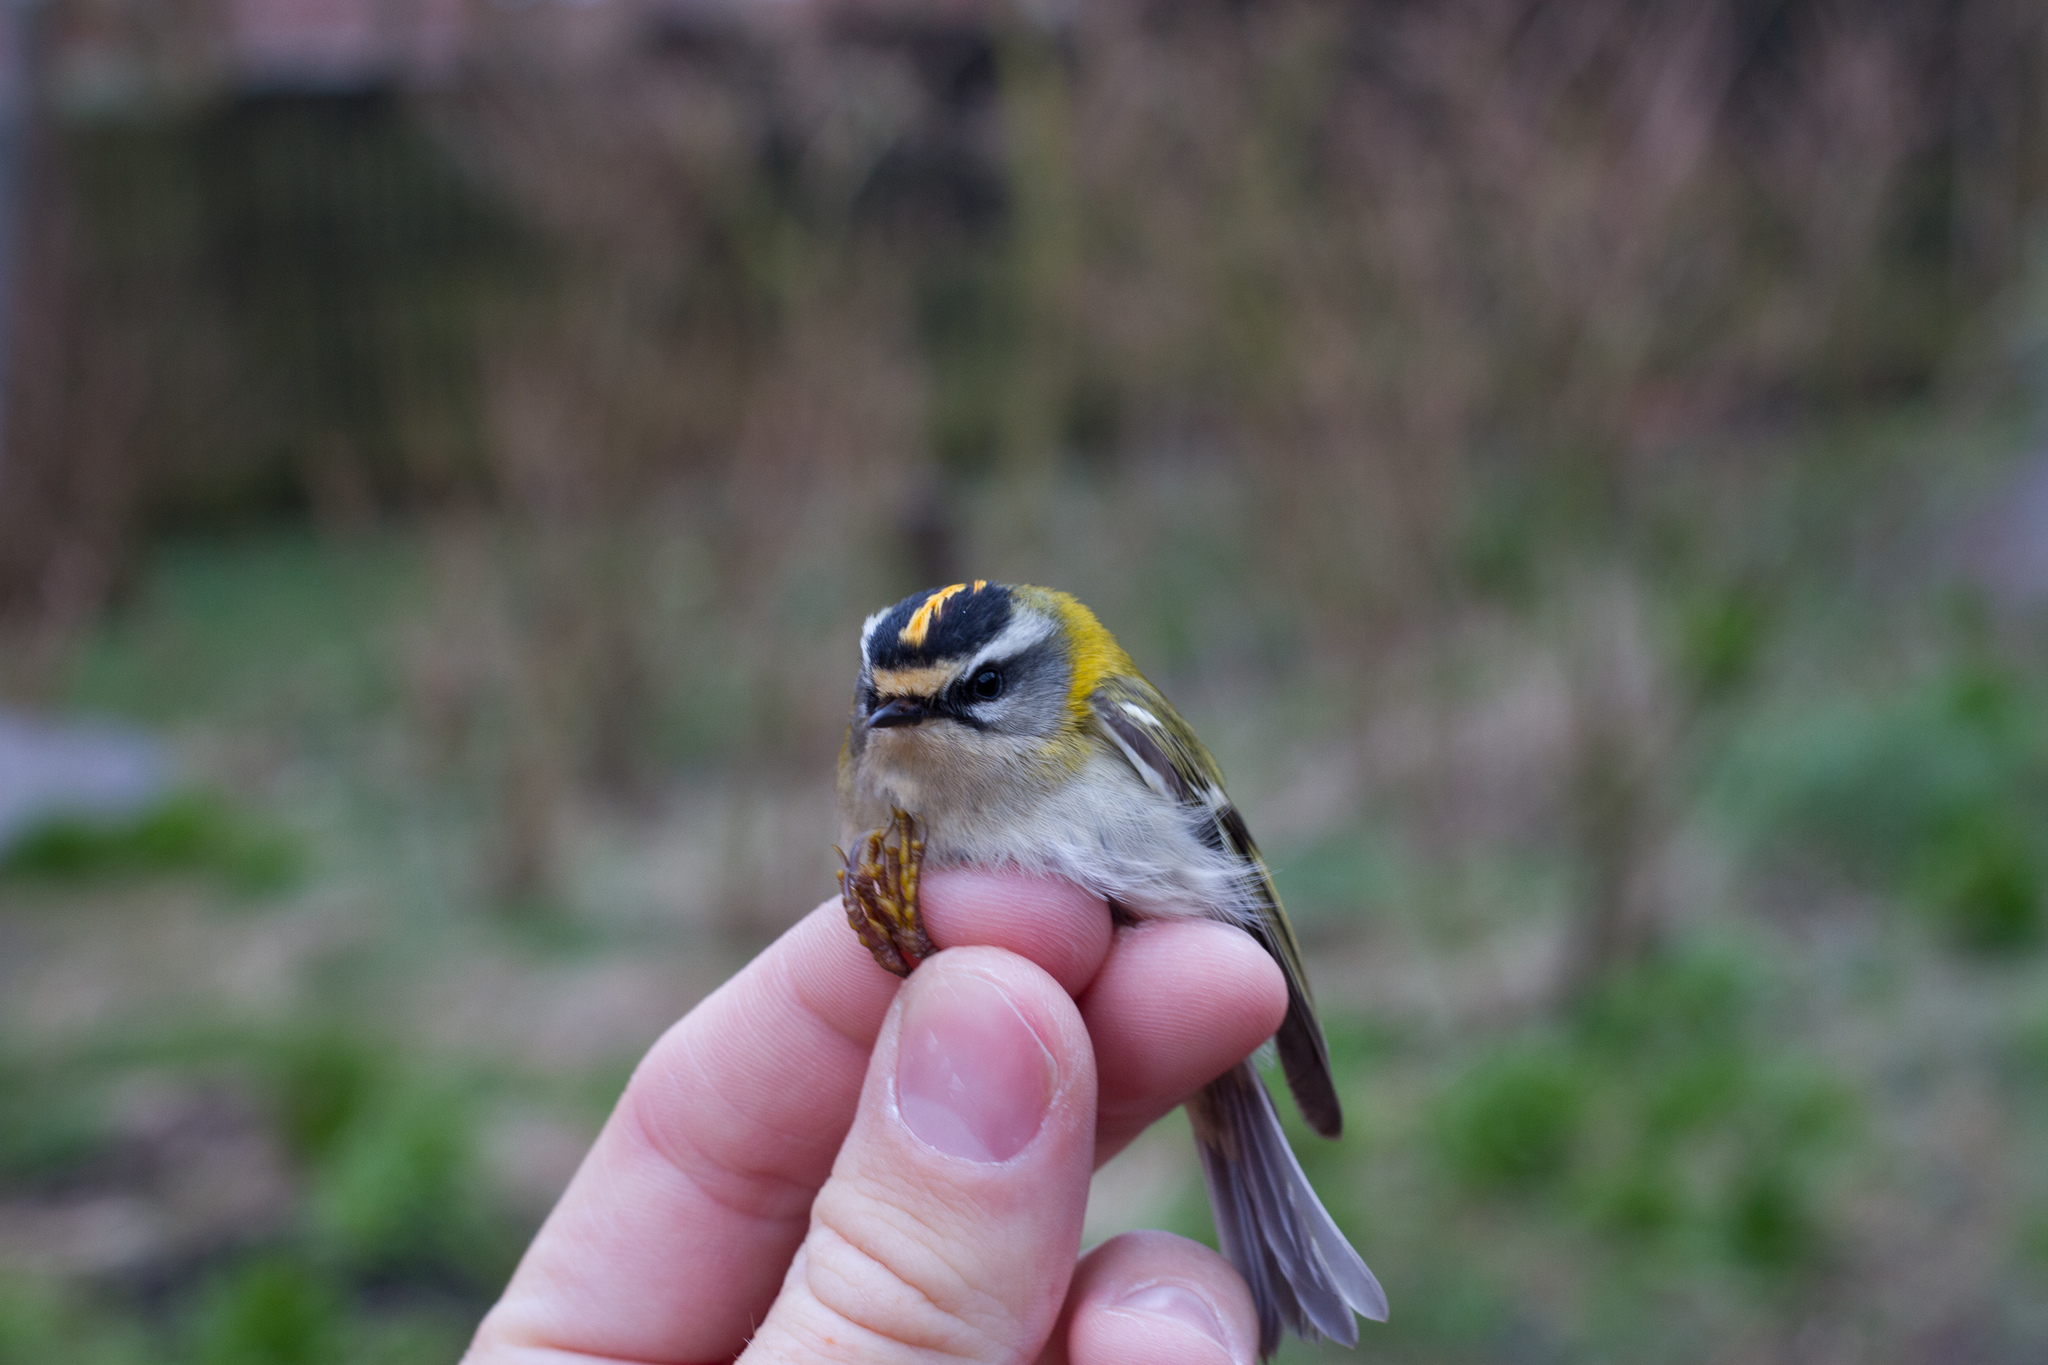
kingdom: Animalia
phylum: Chordata
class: Aves
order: Passeriformes
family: Regulidae
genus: Regulus
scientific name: Regulus ignicapilla
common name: Firecrest
